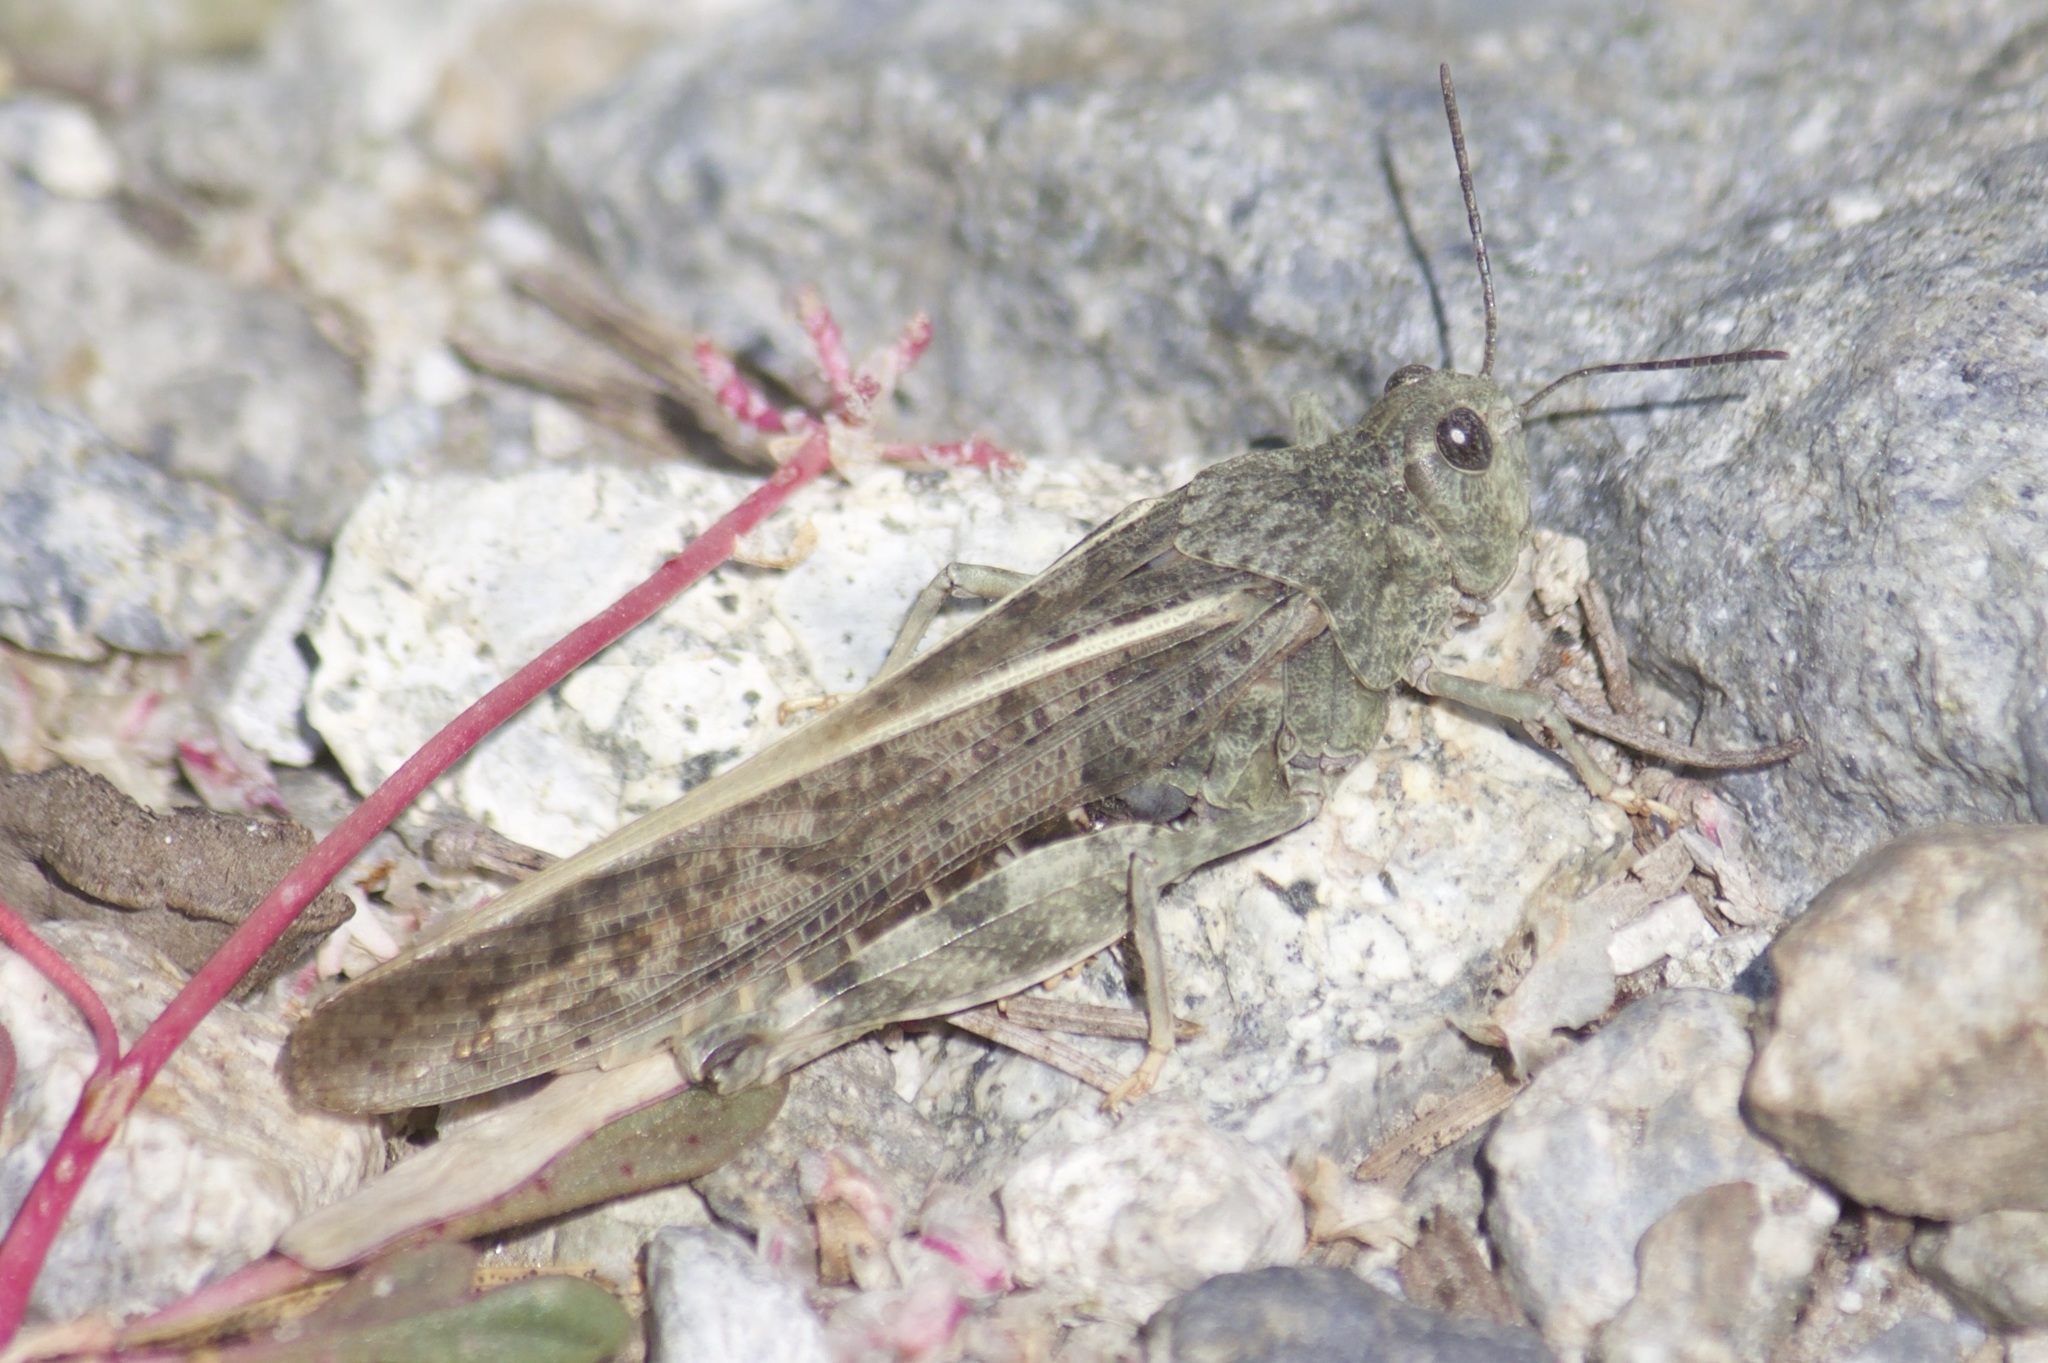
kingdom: Animalia
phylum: Arthropoda
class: Insecta
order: Orthoptera
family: Acrididae
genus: Cratypedes
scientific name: Cratypedes lateritius
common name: Nevada red-winged grasshopper
